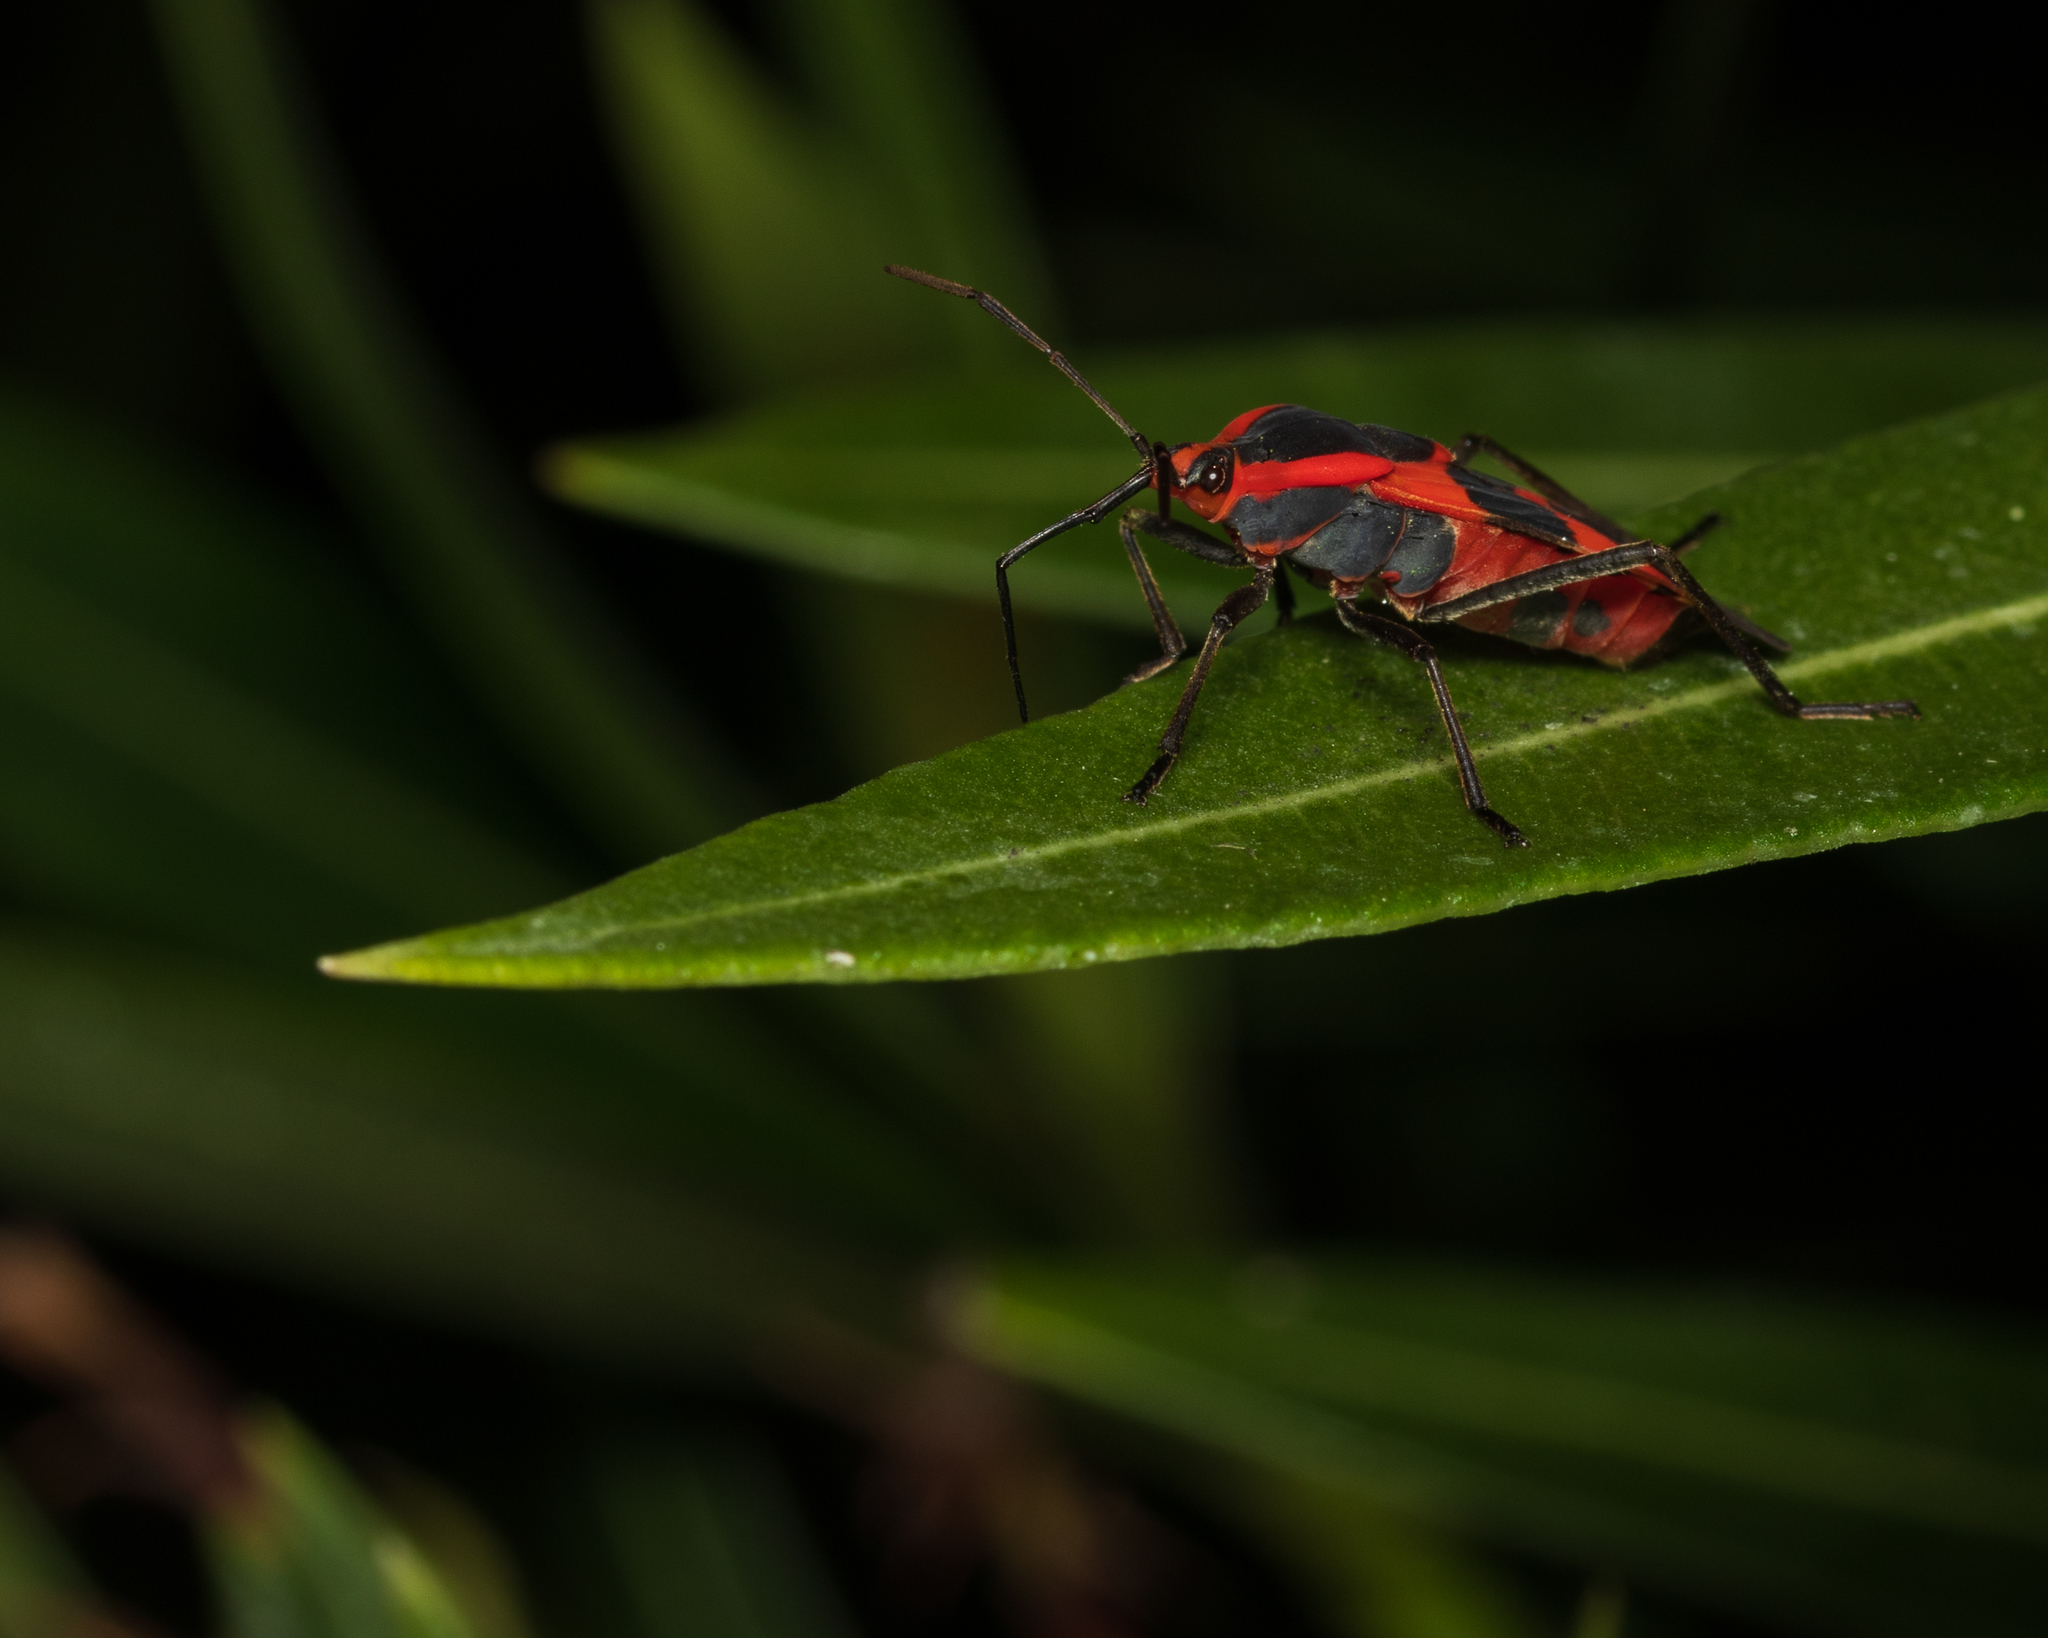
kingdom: Animalia
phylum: Arthropoda
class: Insecta
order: Hemiptera
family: Lygaeidae
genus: Oncopeltus
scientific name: Oncopeltus fasciatus
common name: Large milkweed bug
